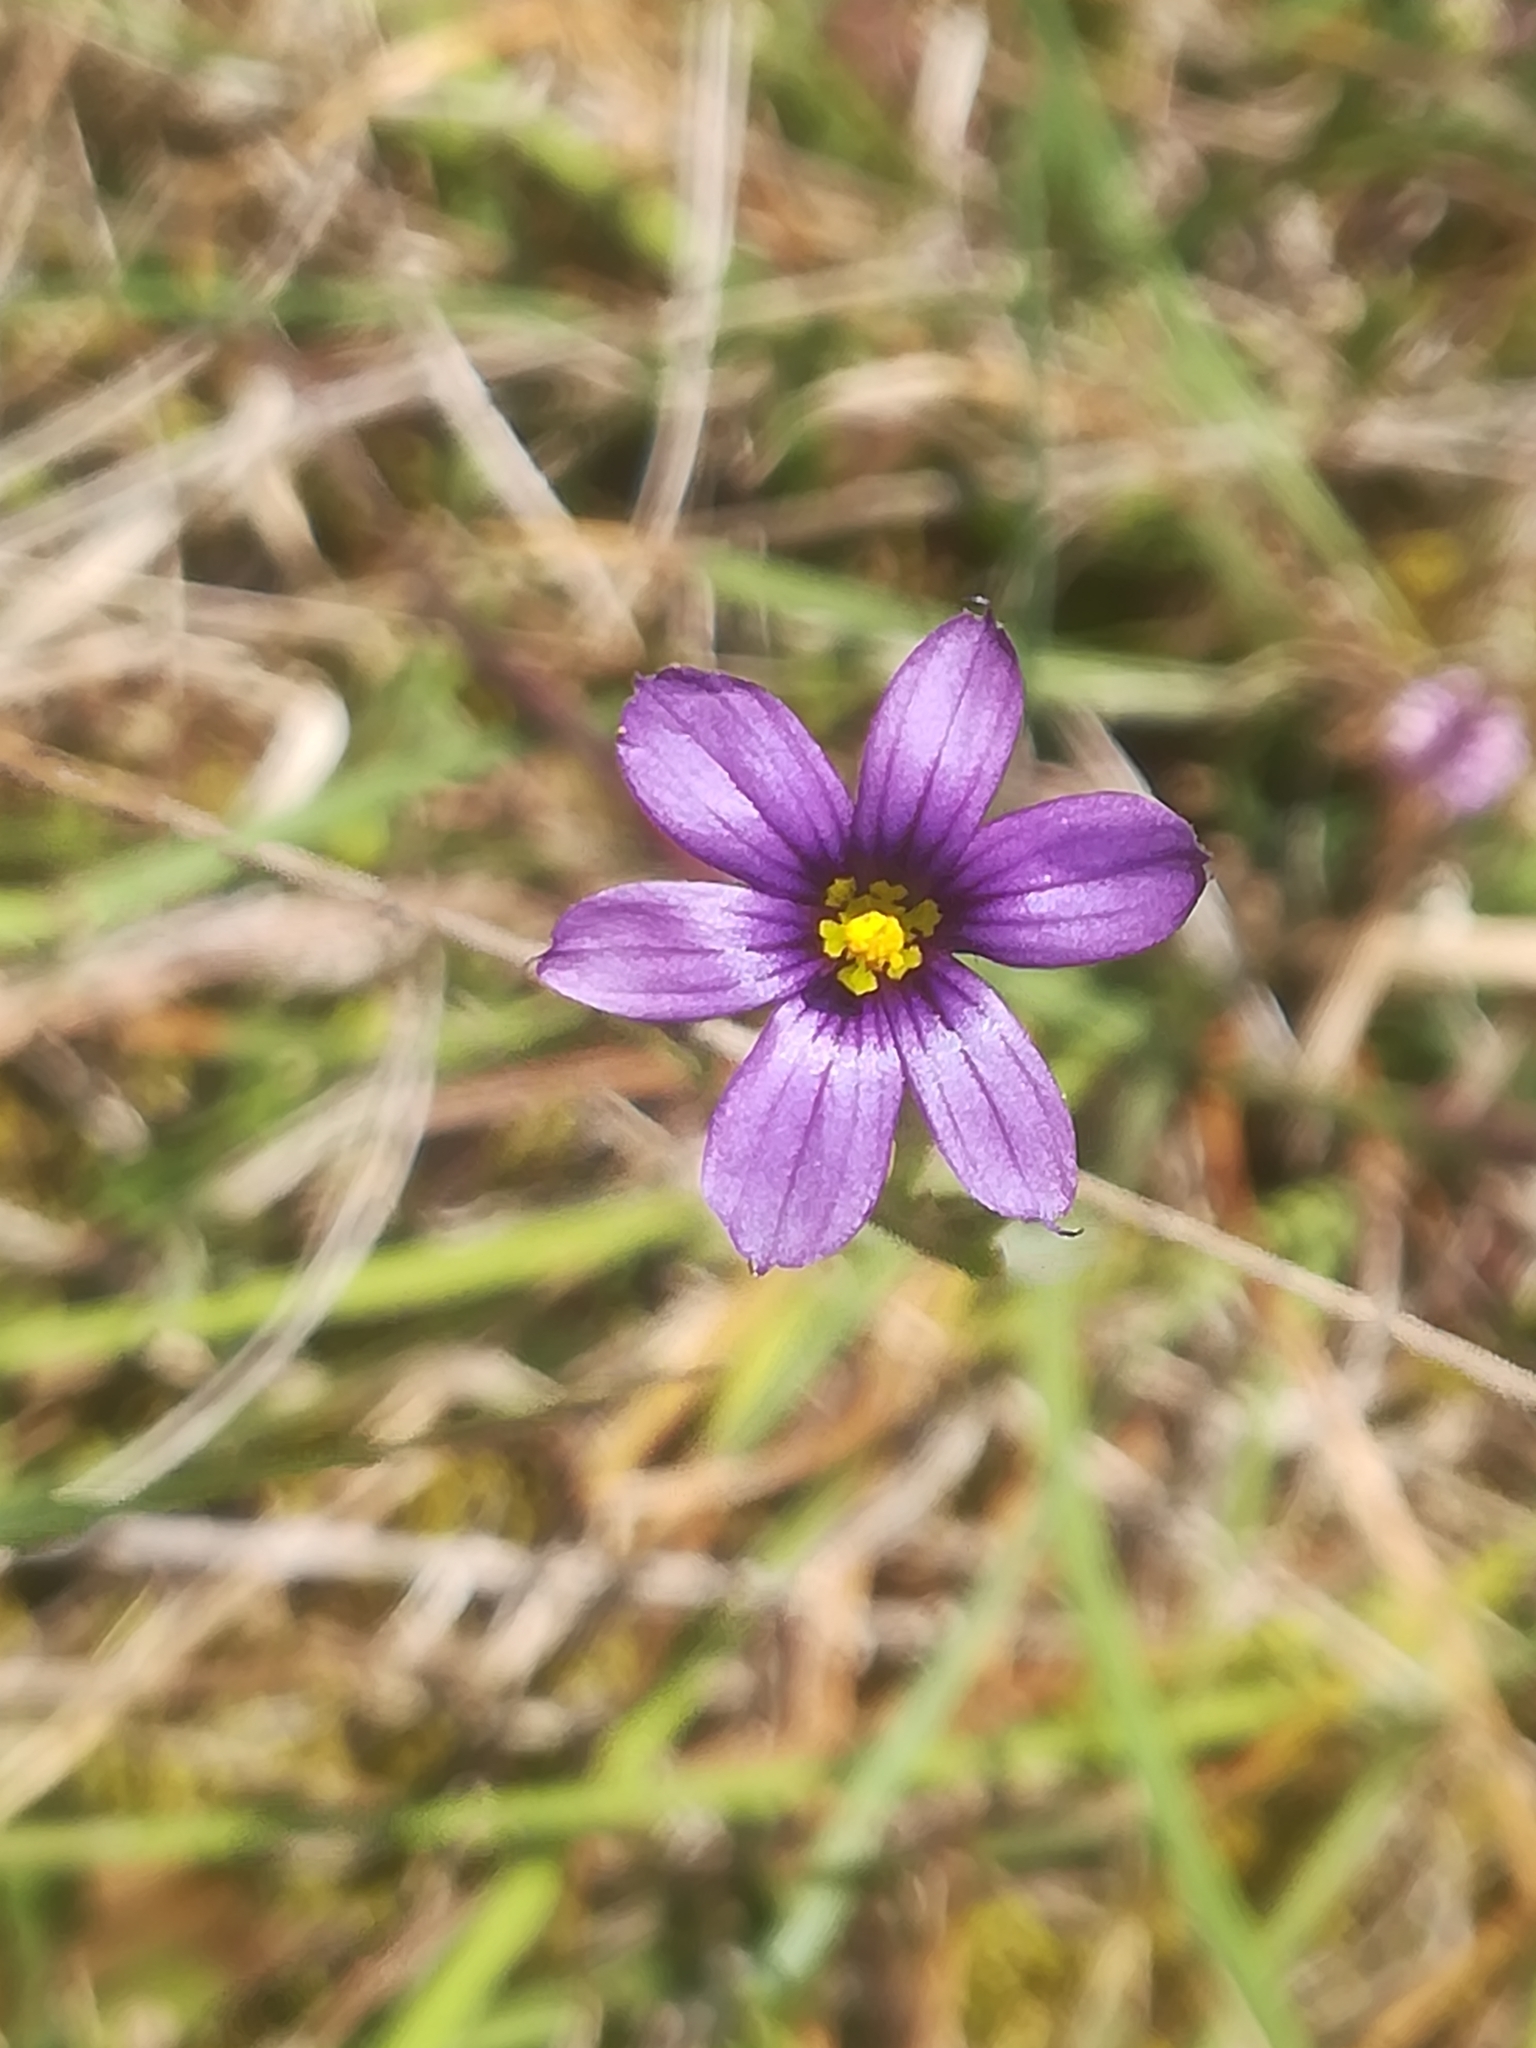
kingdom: Plantae
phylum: Tracheophyta
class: Liliopsida
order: Asparagales
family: Iridaceae
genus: Sisyrinchium
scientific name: Sisyrinchium scabrum
